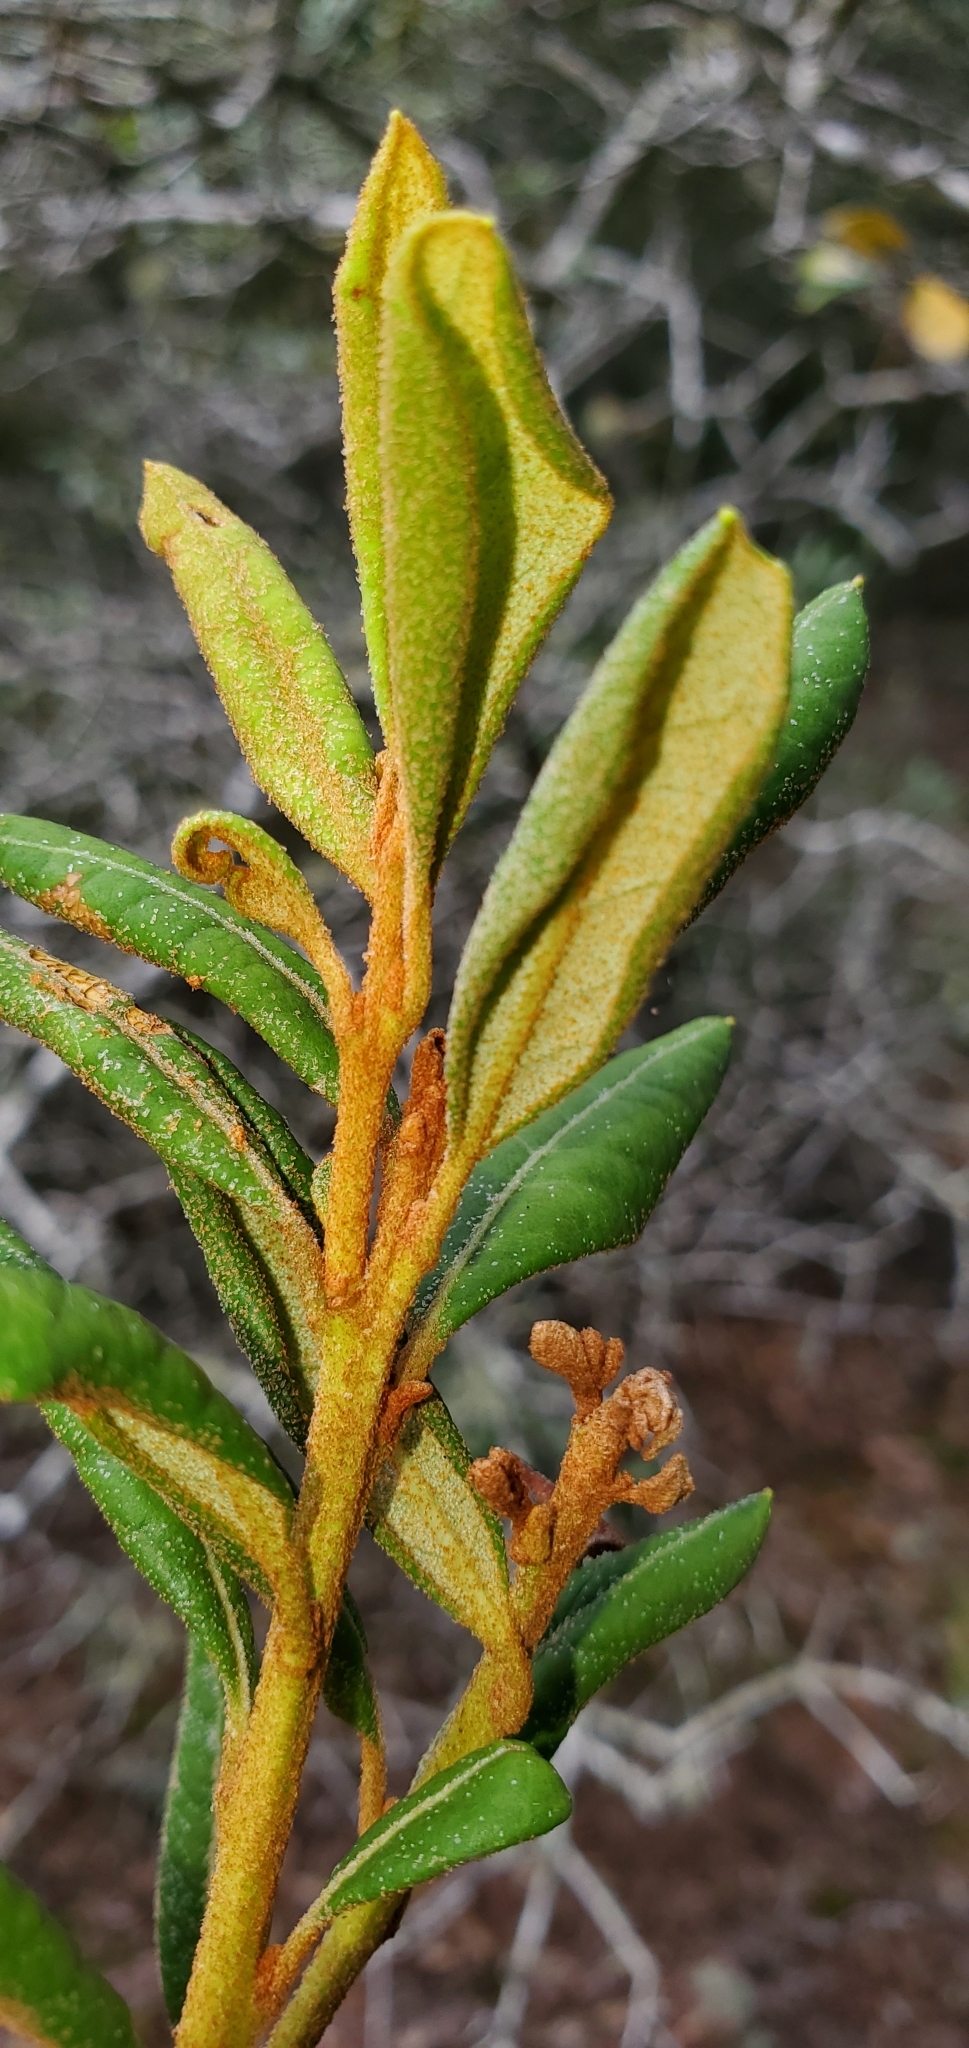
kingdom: Plantae
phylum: Tracheophyta
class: Magnoliopsida
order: Ericales
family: Ericaceae
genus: Lyonia
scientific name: Lyonia ferruginea
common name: Rusty lyonia
